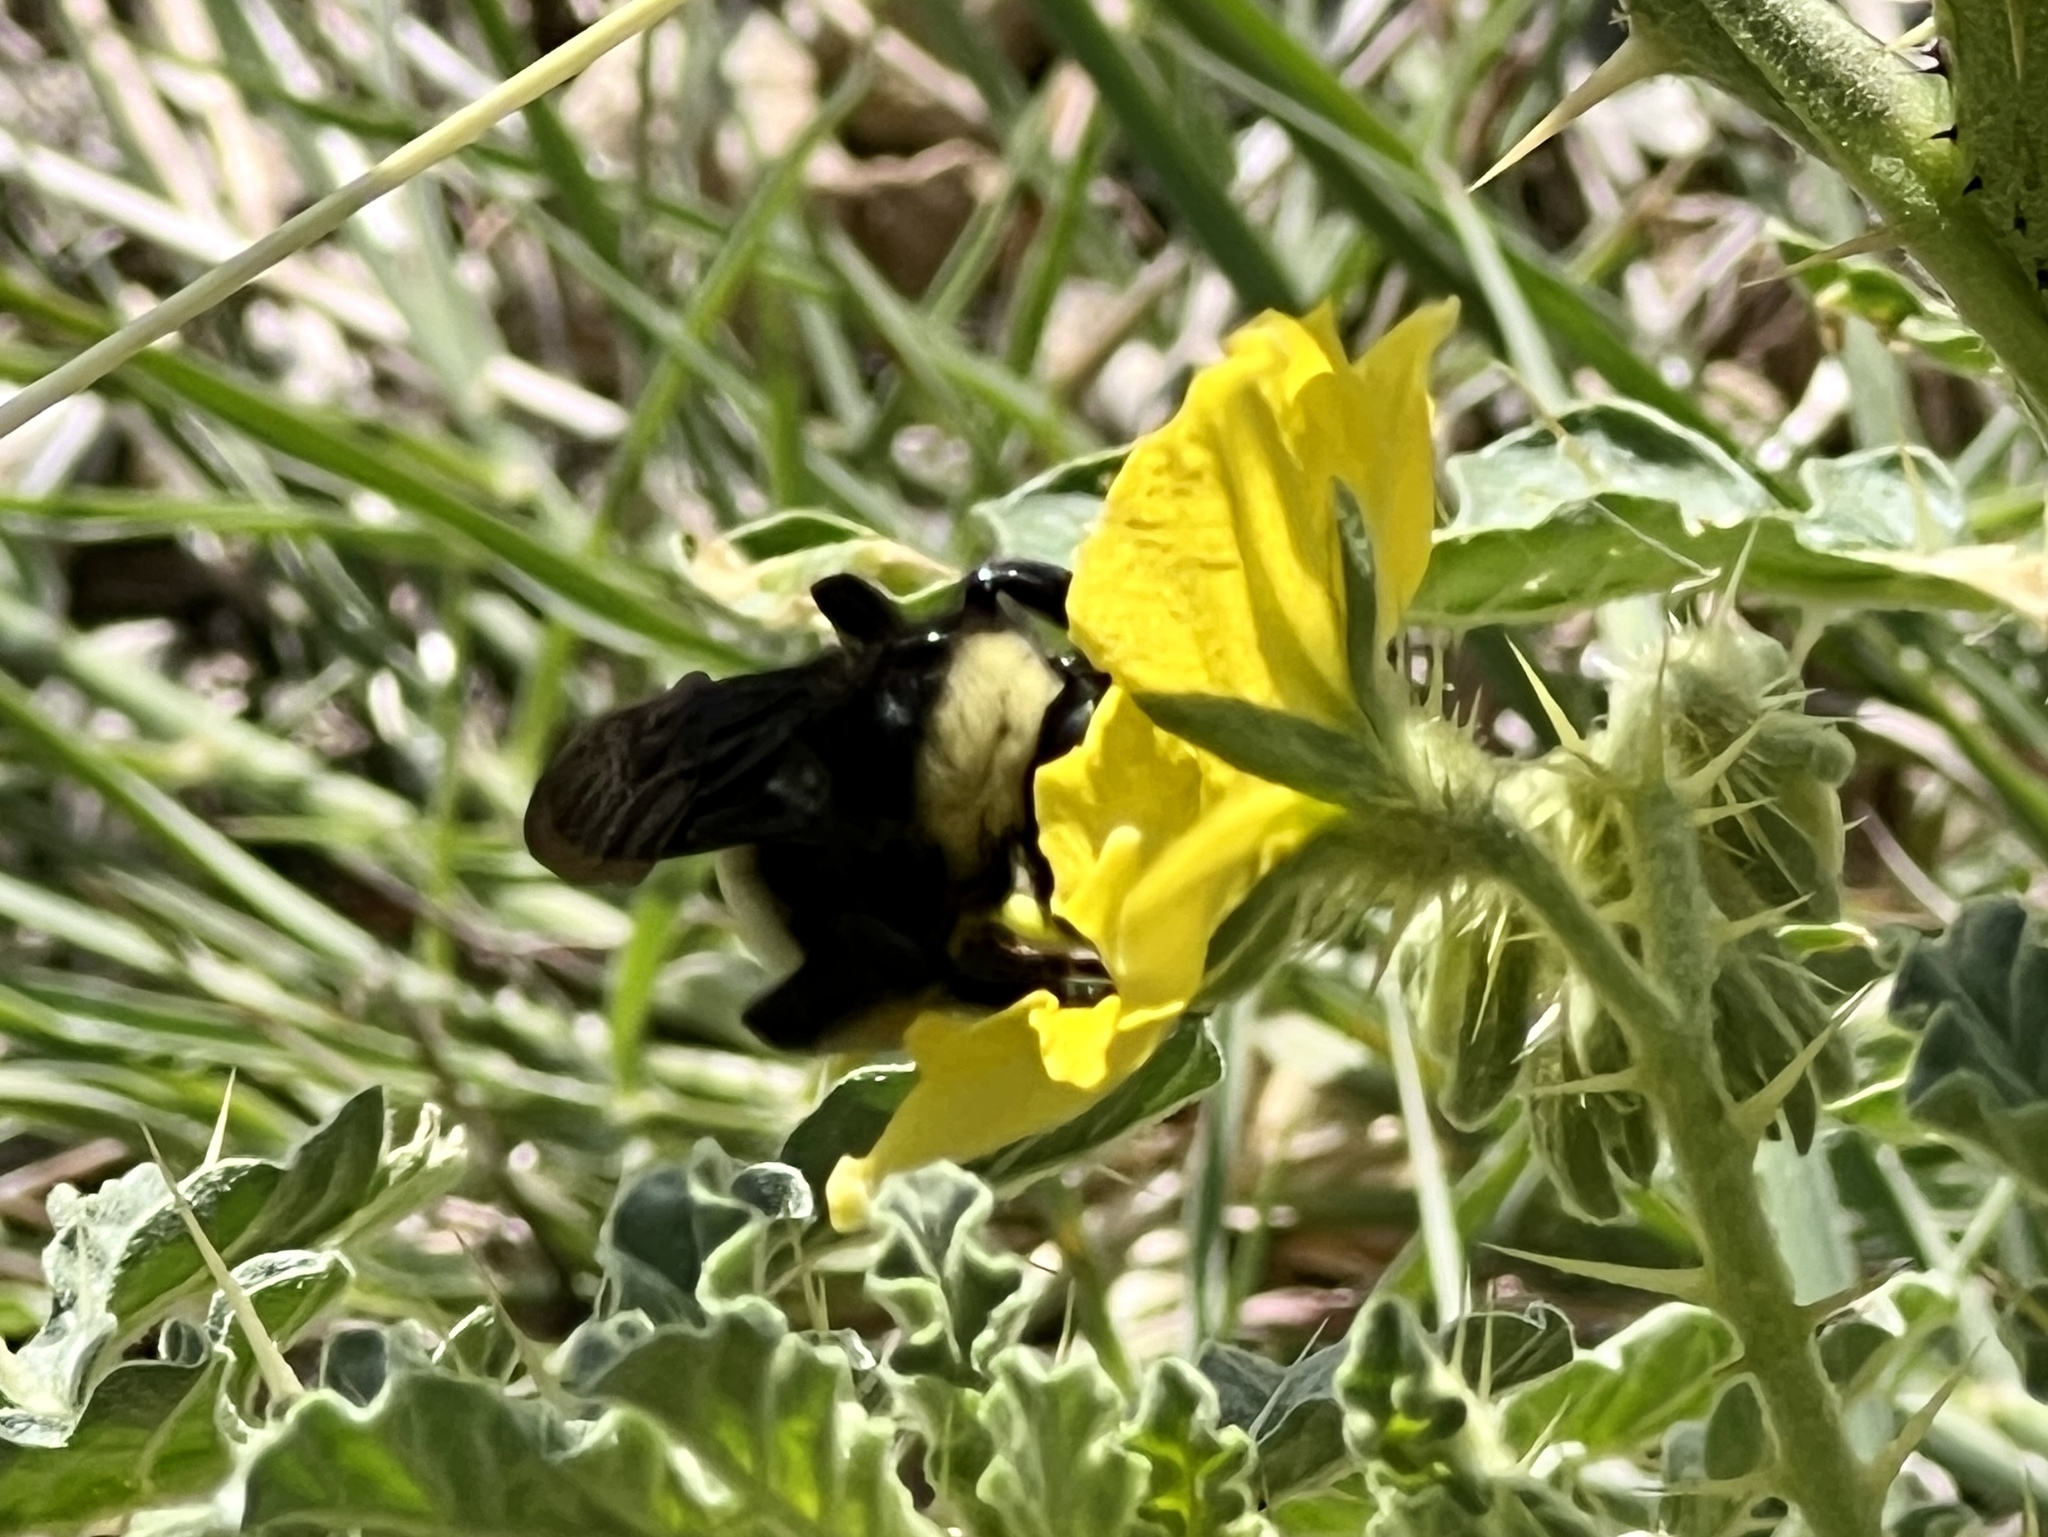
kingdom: Animalia
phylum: Arthropoda
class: Insecta
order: Hymenoptera
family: Apidae
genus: Bombus
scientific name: Bombus pensylvanicus
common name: Bumble bee
